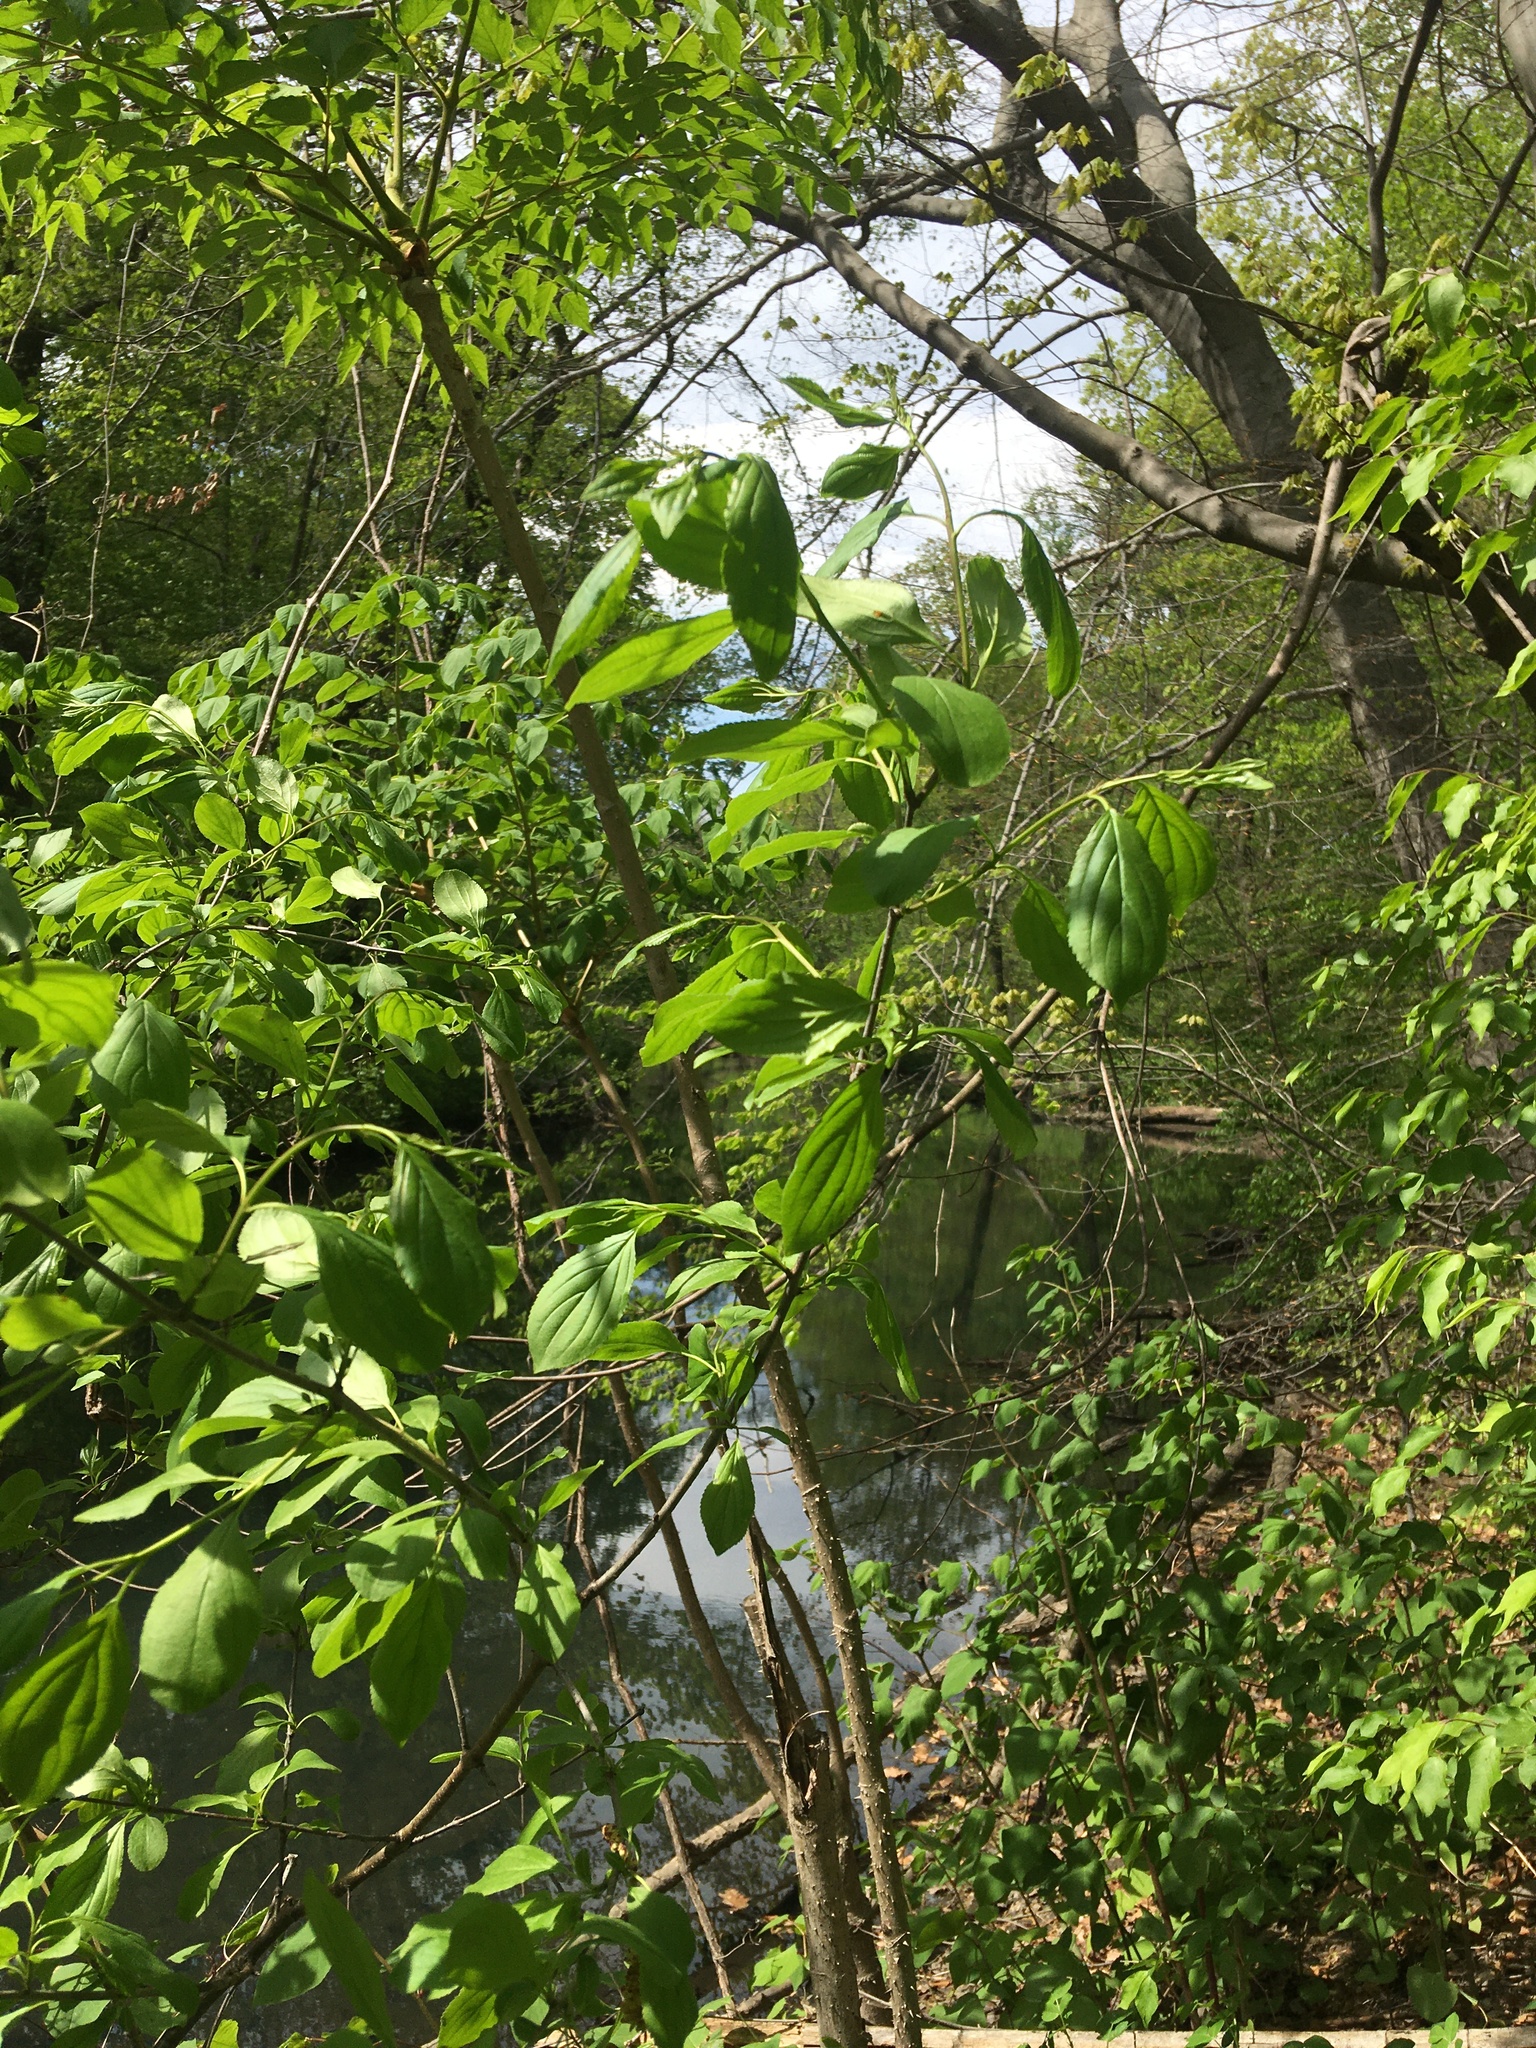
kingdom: Plantae
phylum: Tracheophyta
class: Magnoliopsida
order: Rosales
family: Rhamnaceae
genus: Rhamnus
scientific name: Rhamnus cathartica
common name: Common buckthorn
